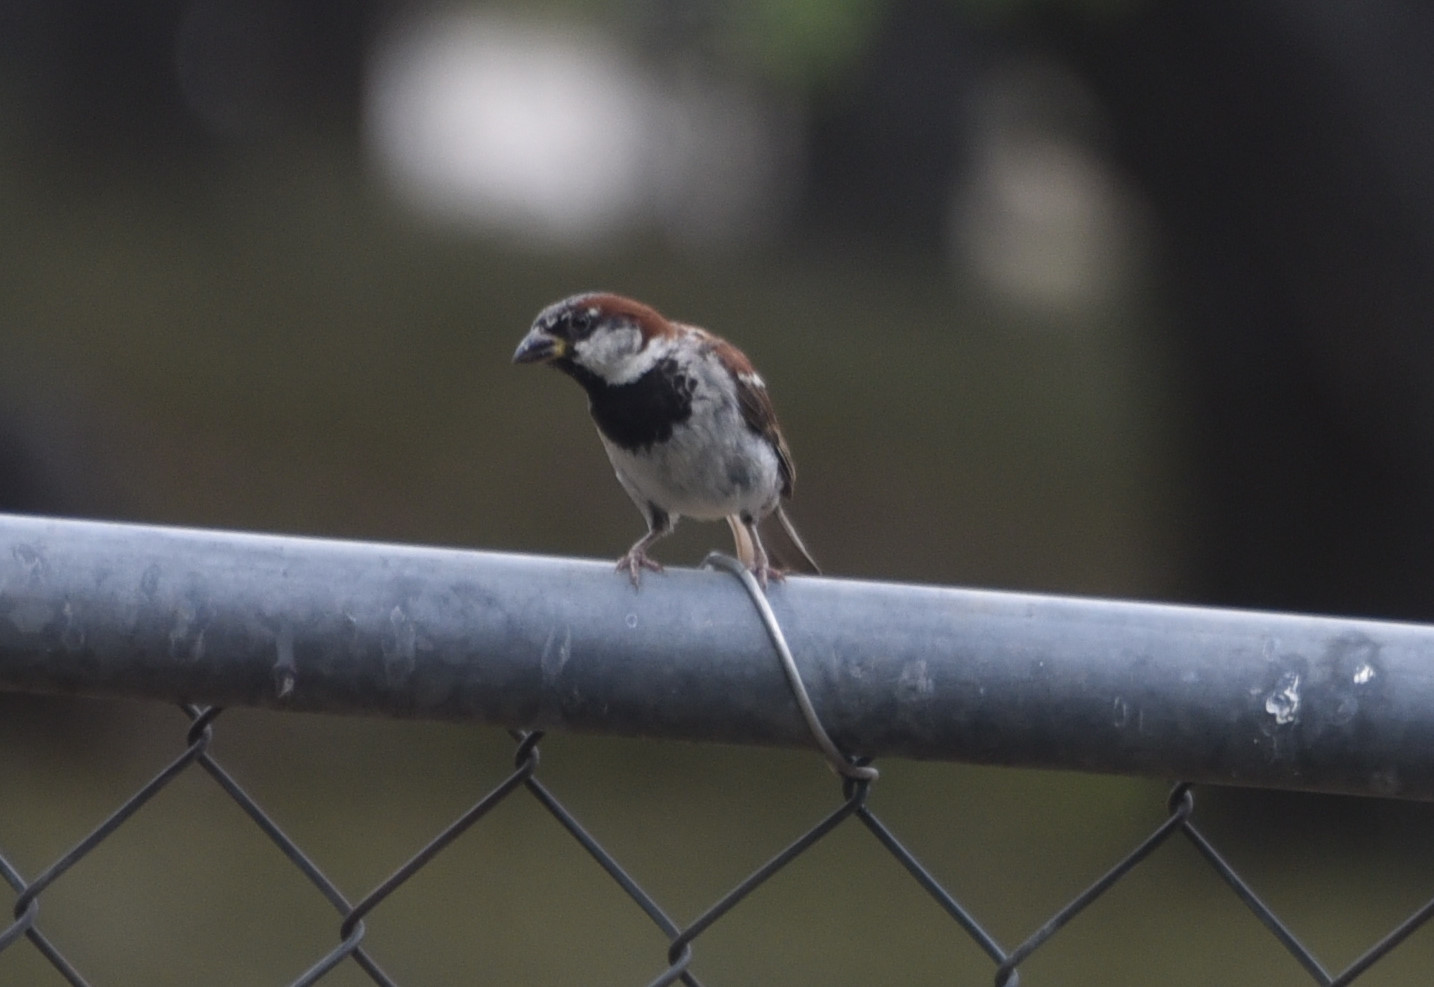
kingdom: Animalia
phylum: Chordata
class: Aves
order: Passeriformes
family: Passeridae
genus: Passer
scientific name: Passer domesticus
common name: House sparrow
